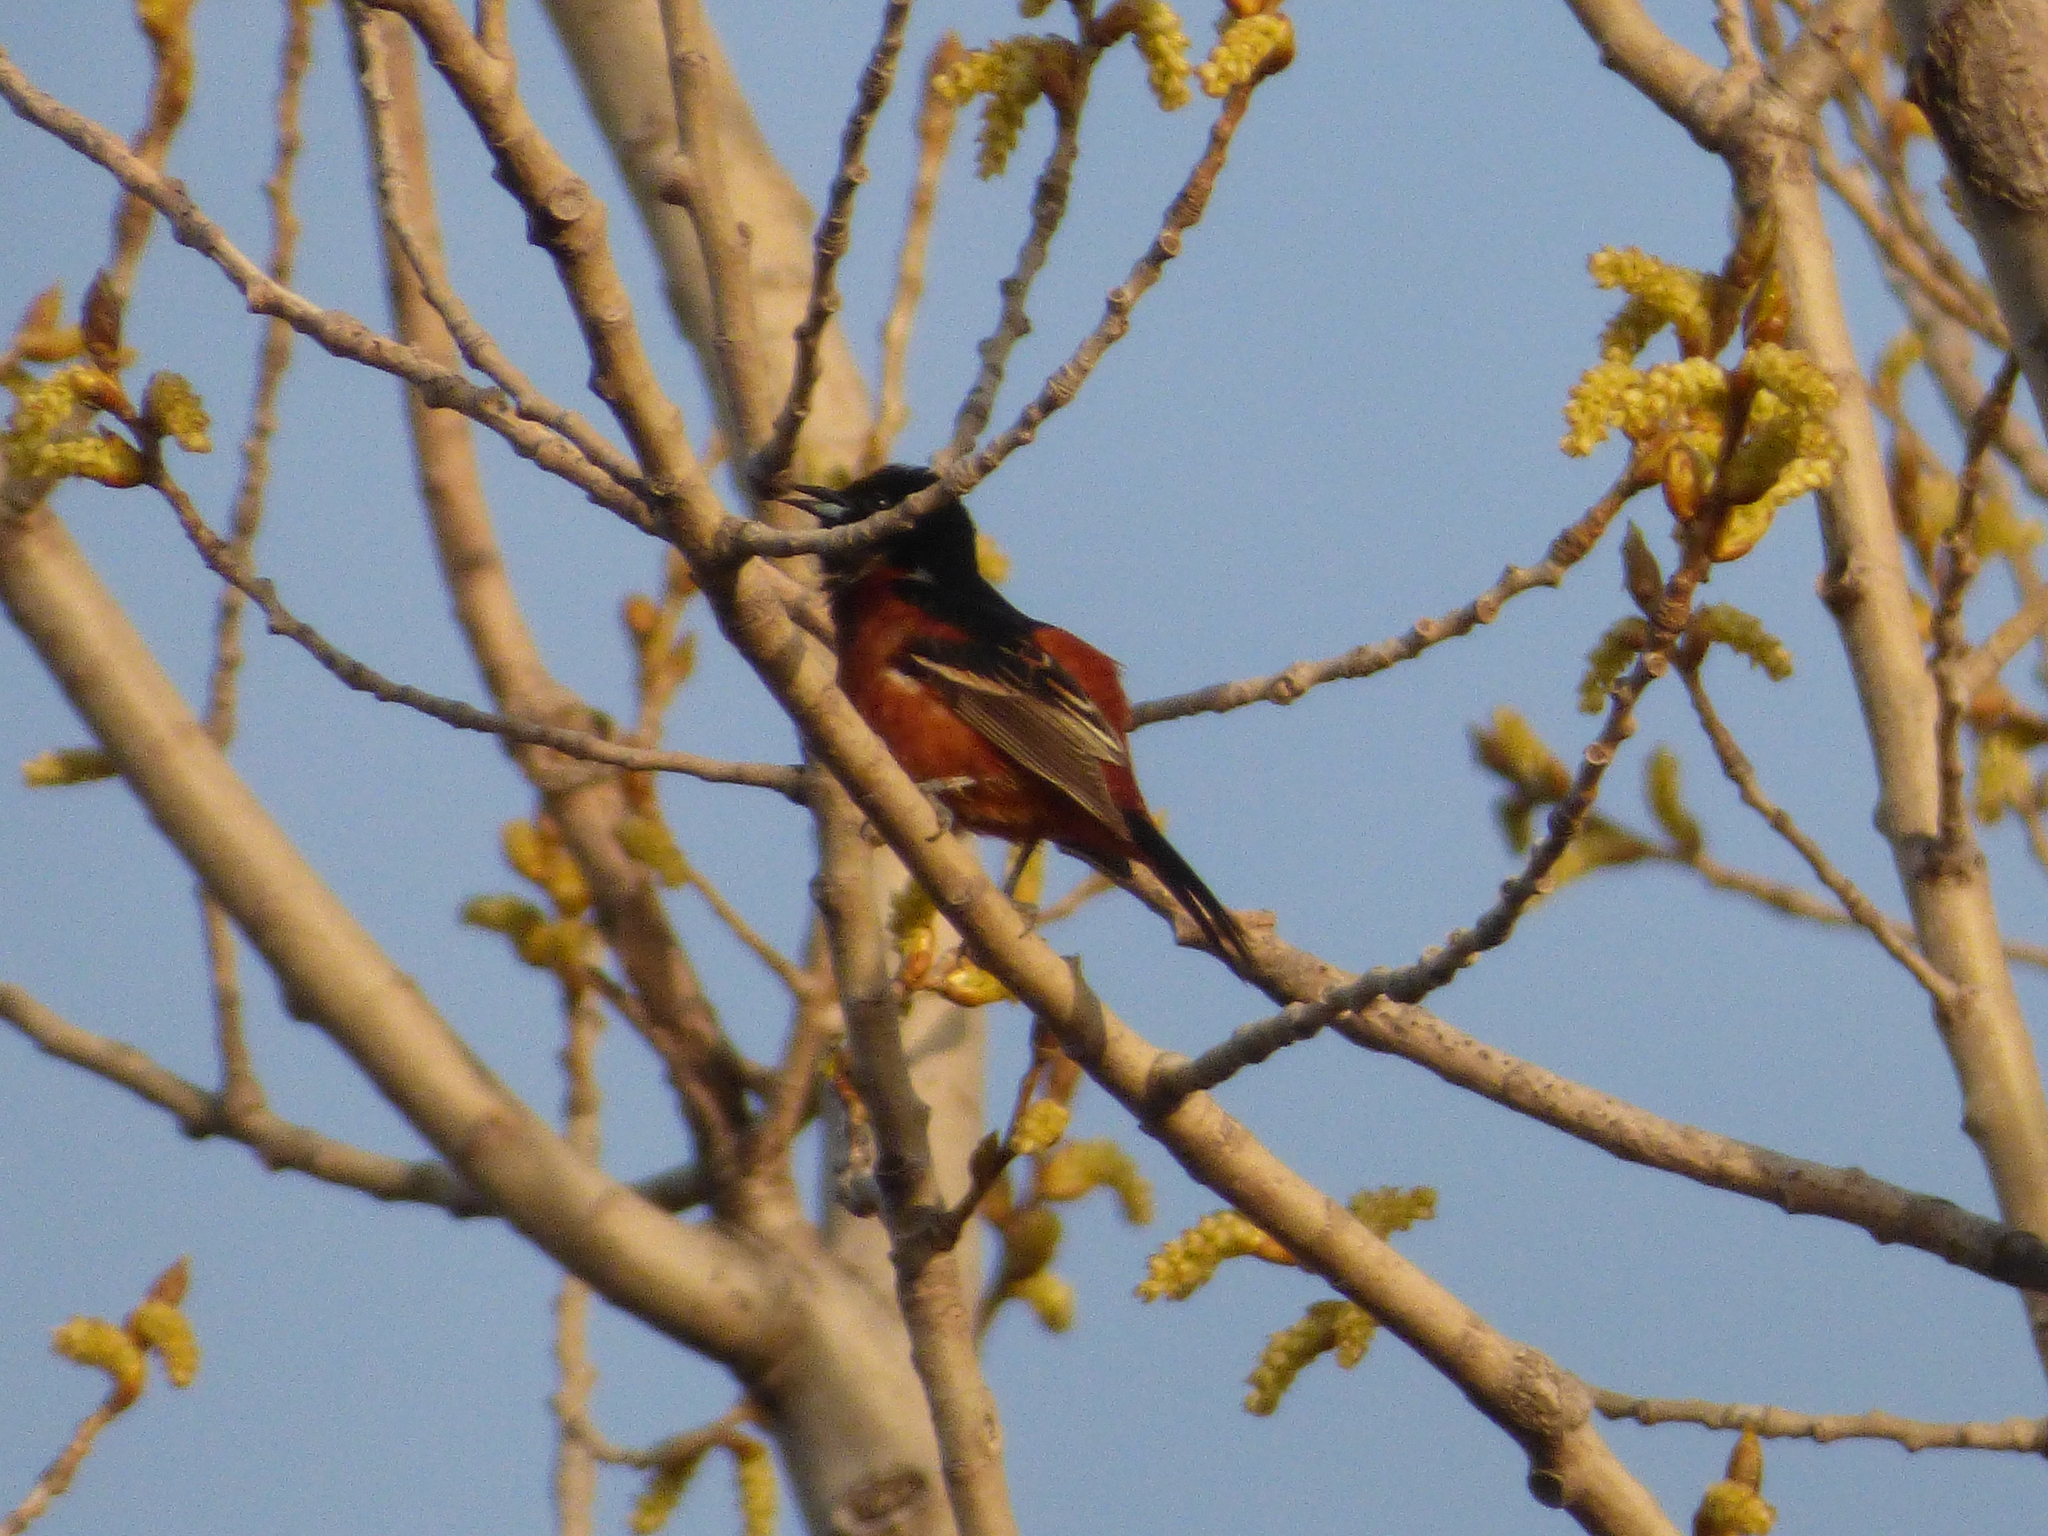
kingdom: Animalia
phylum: Chordata
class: Aves
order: Passeriformes
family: Icteridae
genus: Icterus
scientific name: Icterus spurius
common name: Orchard oriole
